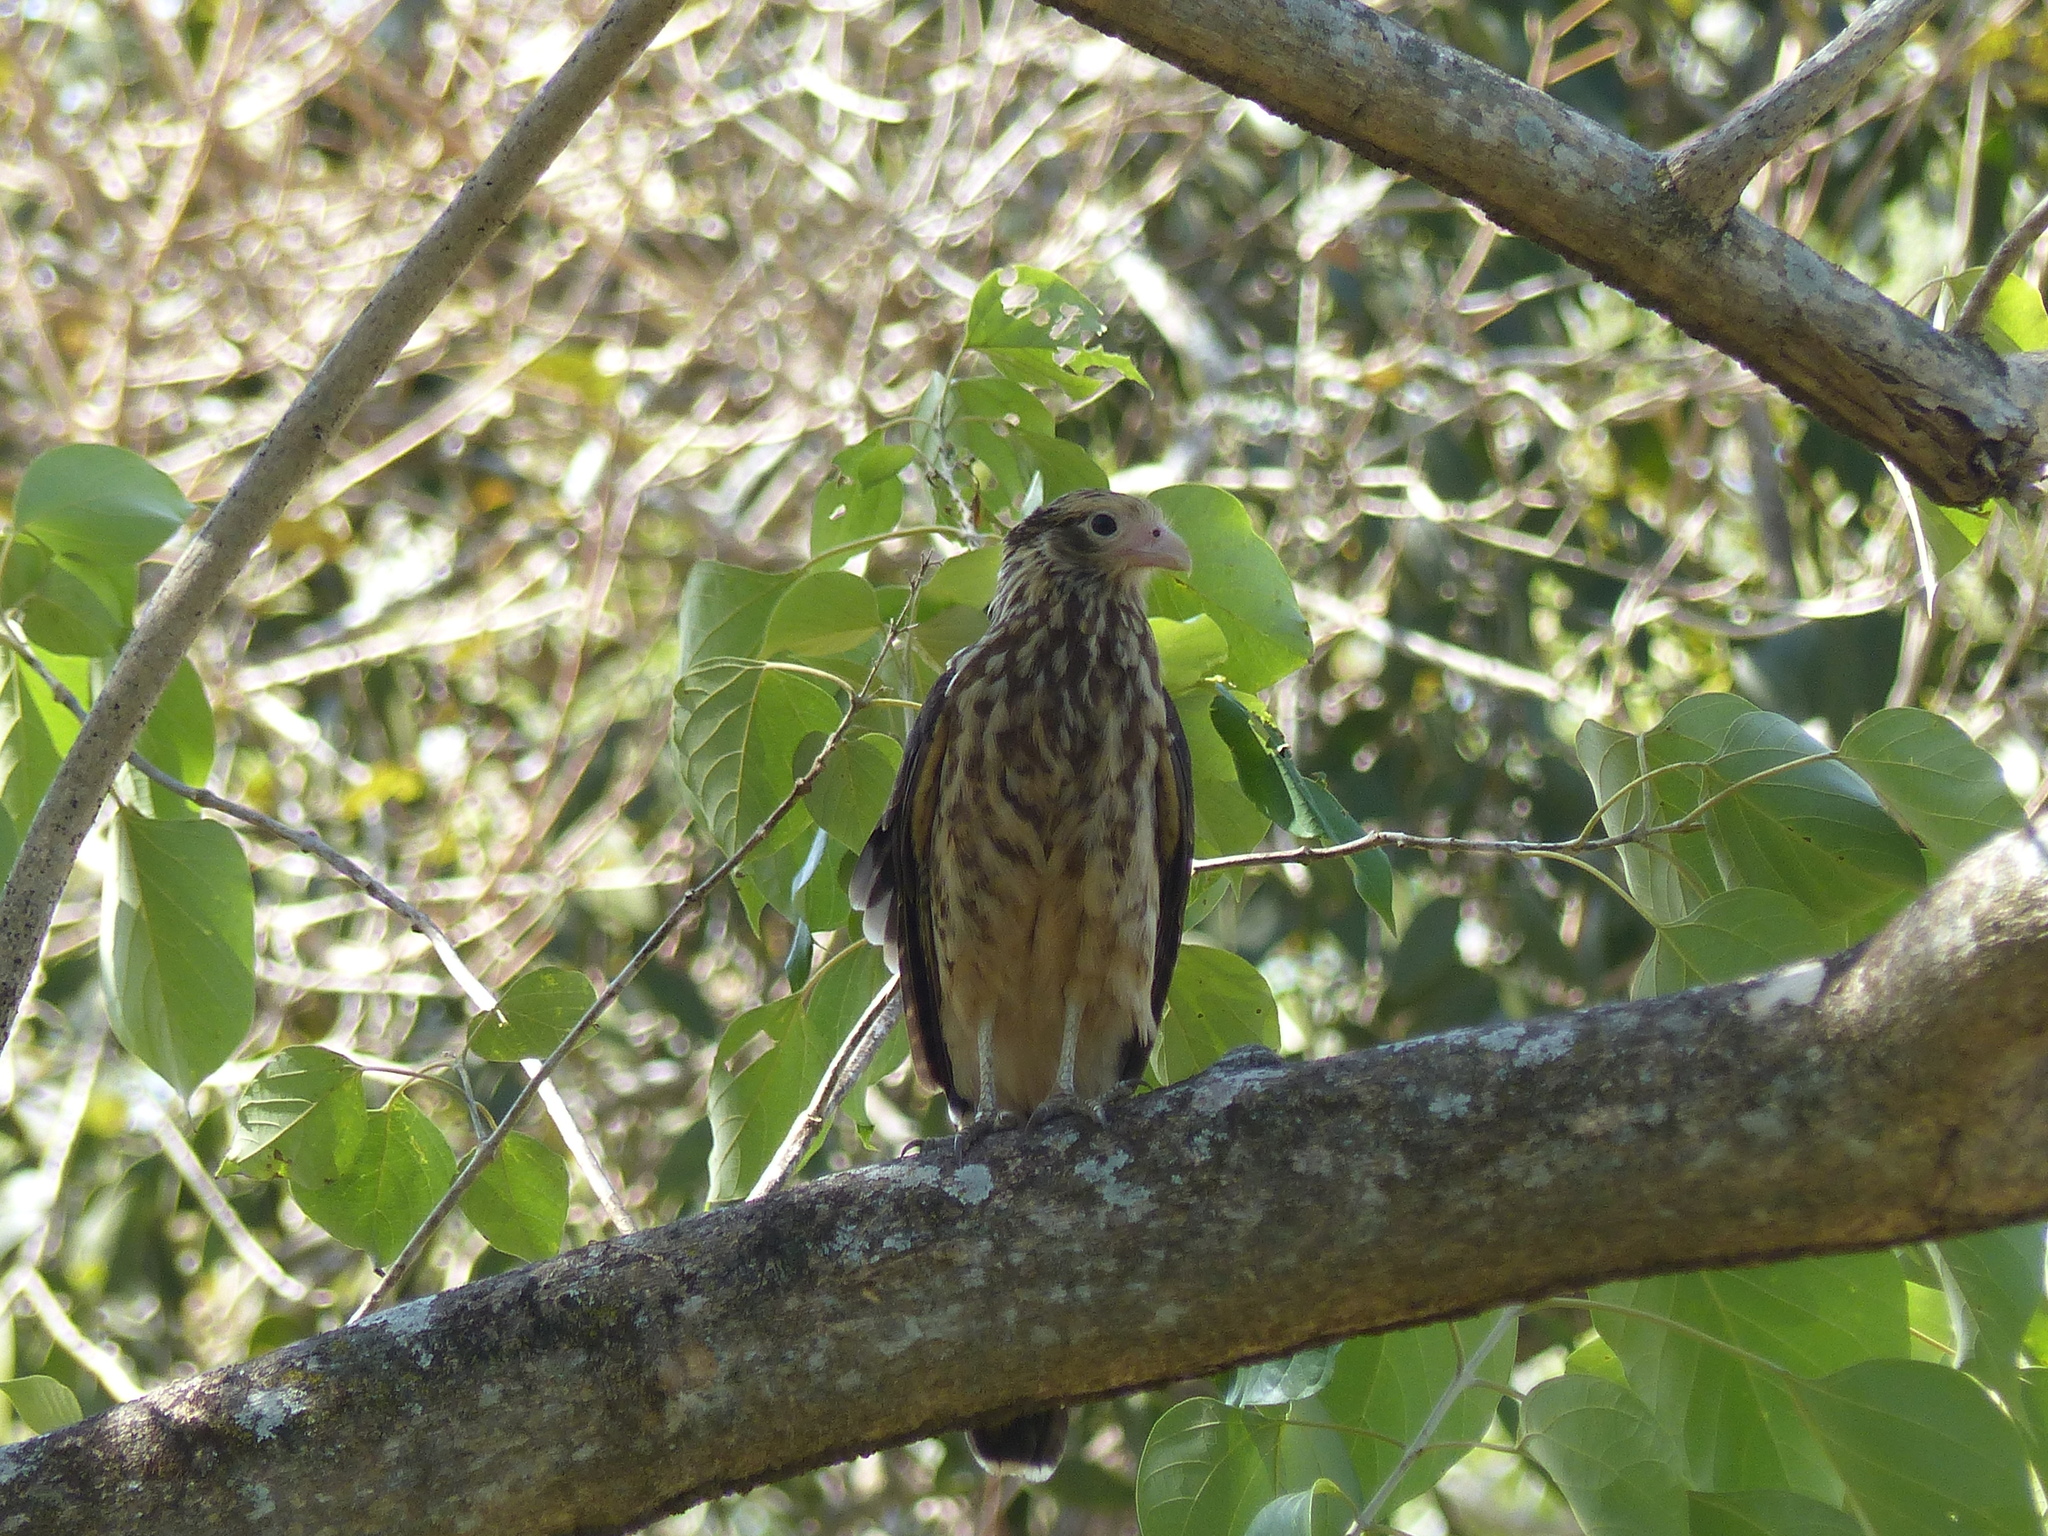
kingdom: Animalia
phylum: Chordata
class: Aves
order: Falconiformes
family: Falconidae
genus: Daptrius
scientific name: Daptrius
